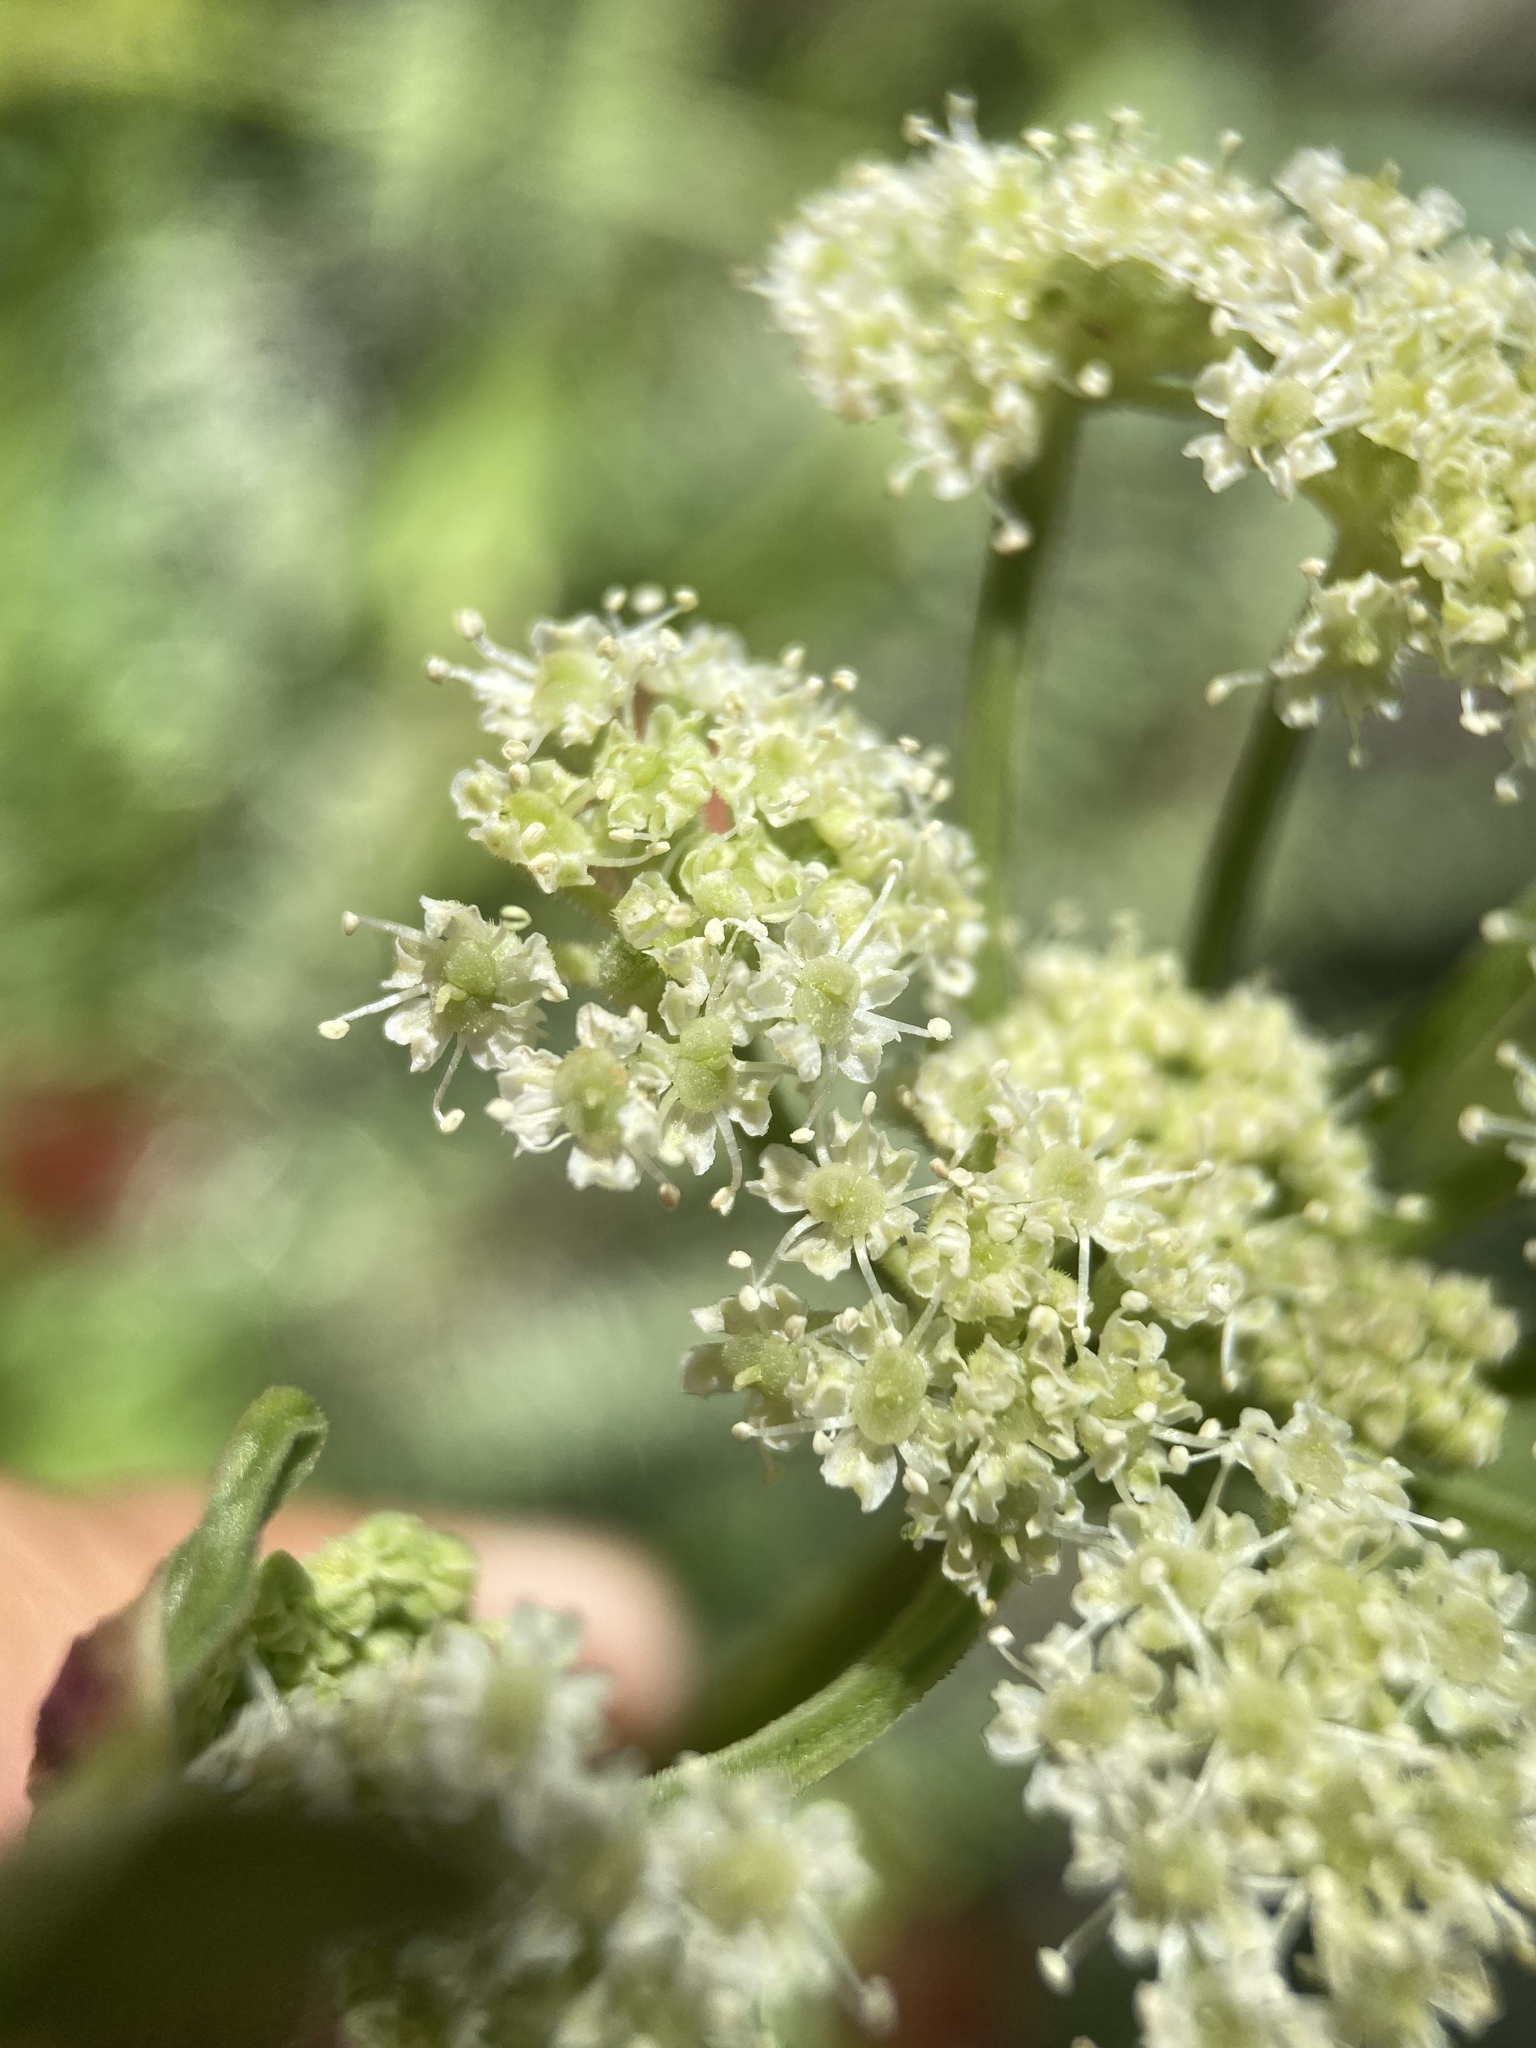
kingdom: Plantae
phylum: Tracheophyta
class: Magnoliopsida
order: Apiales
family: Apiaceae
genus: Angelica
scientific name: Angelica lineariloba
